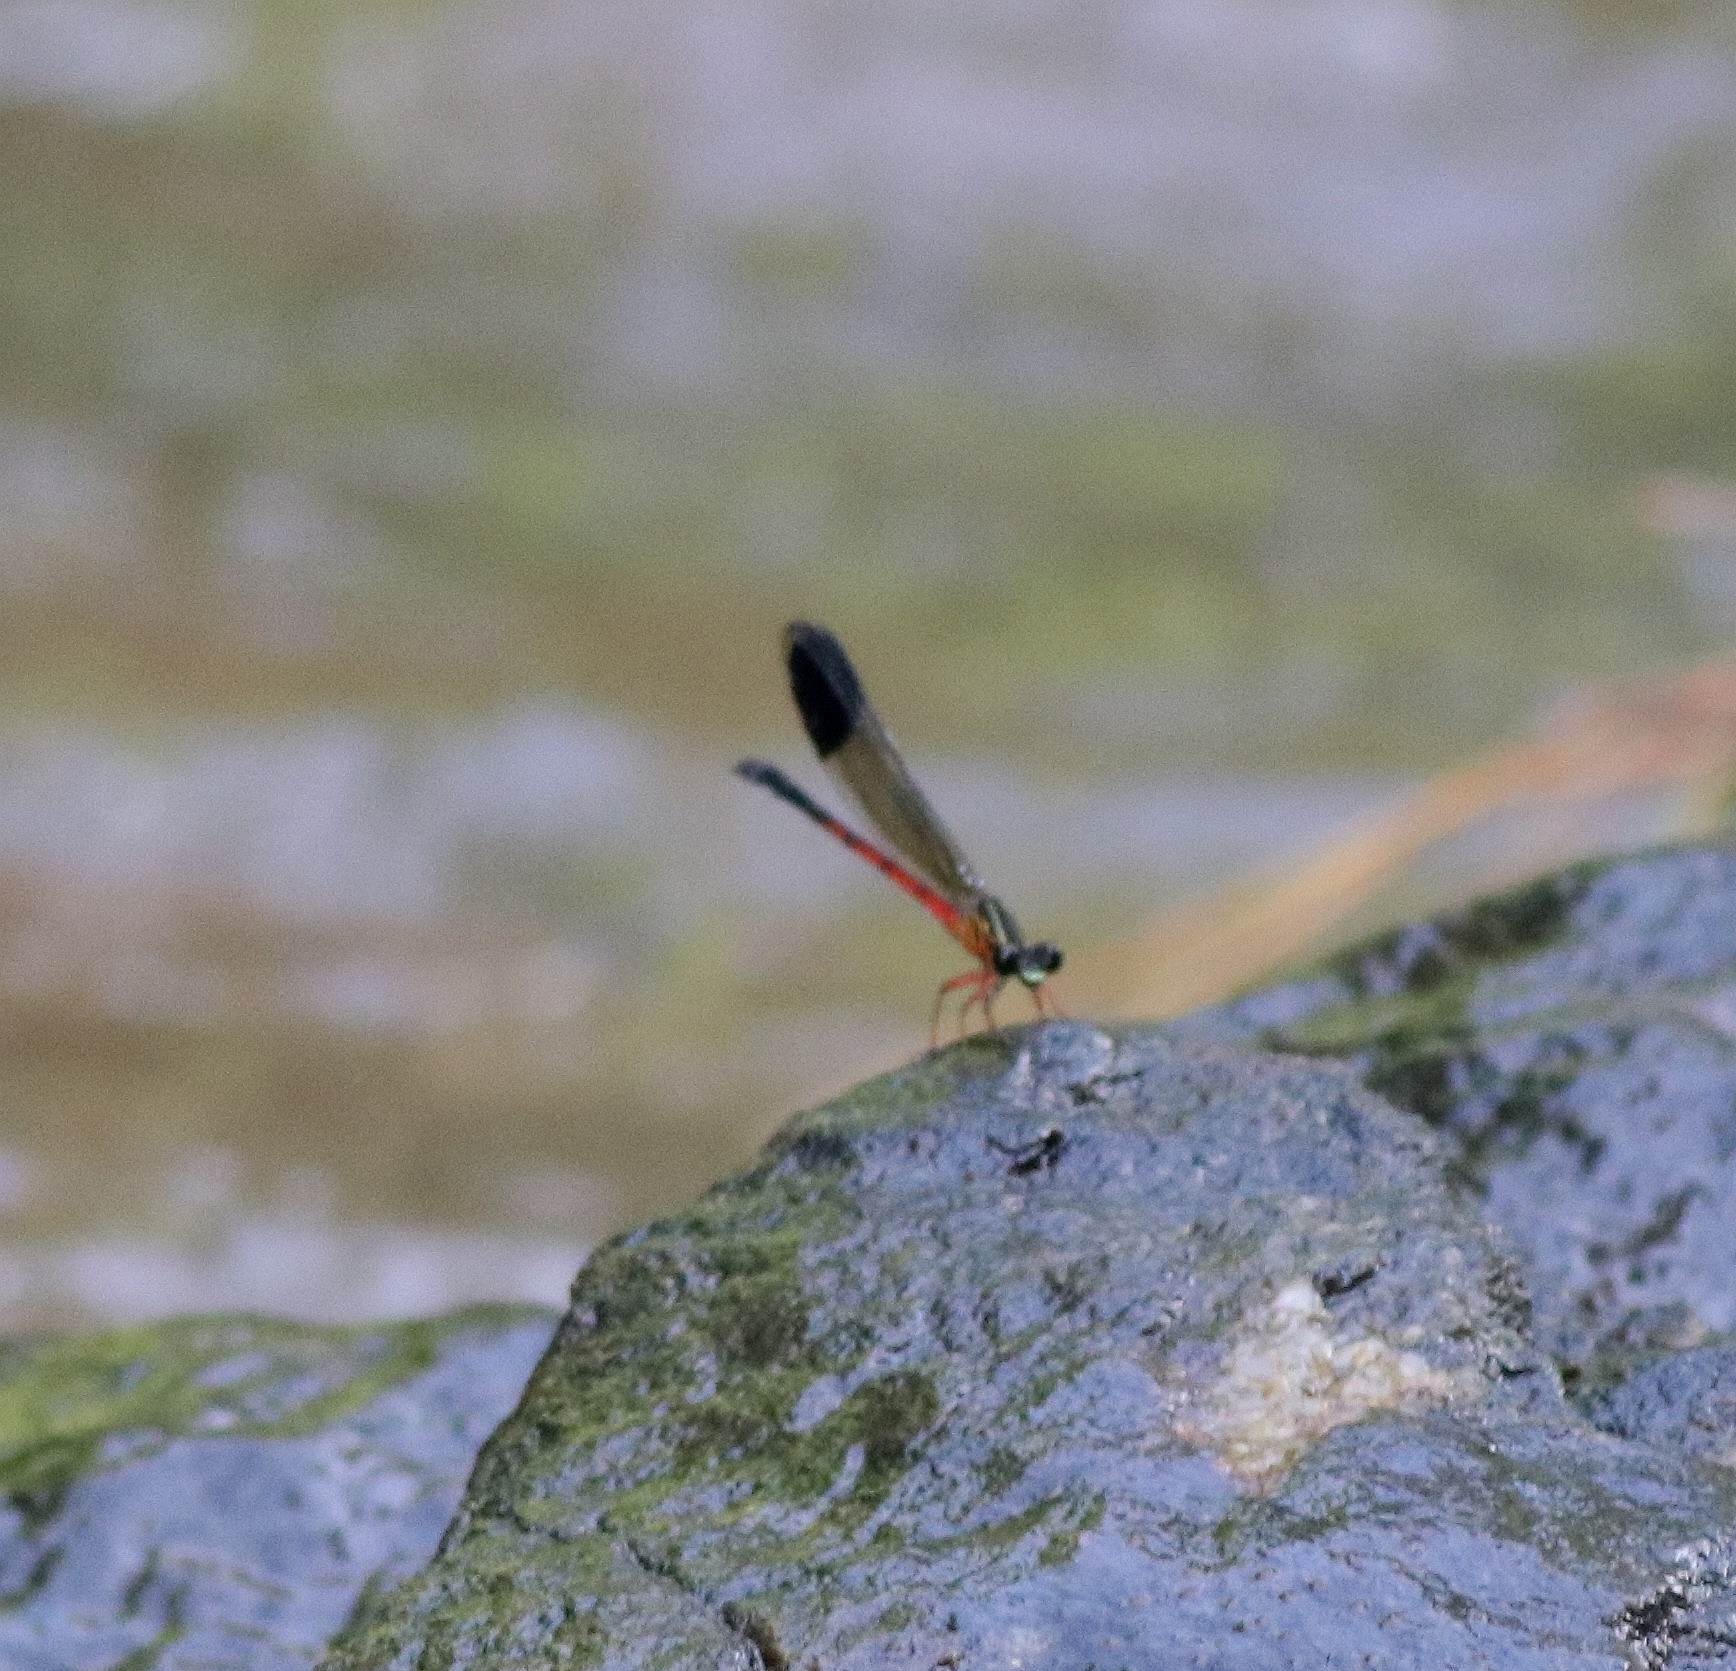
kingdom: Animalia
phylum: Arthropoda
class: Insecta
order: Odonata
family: Euphaeidae
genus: Euphaea
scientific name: Euphaea fraseri
